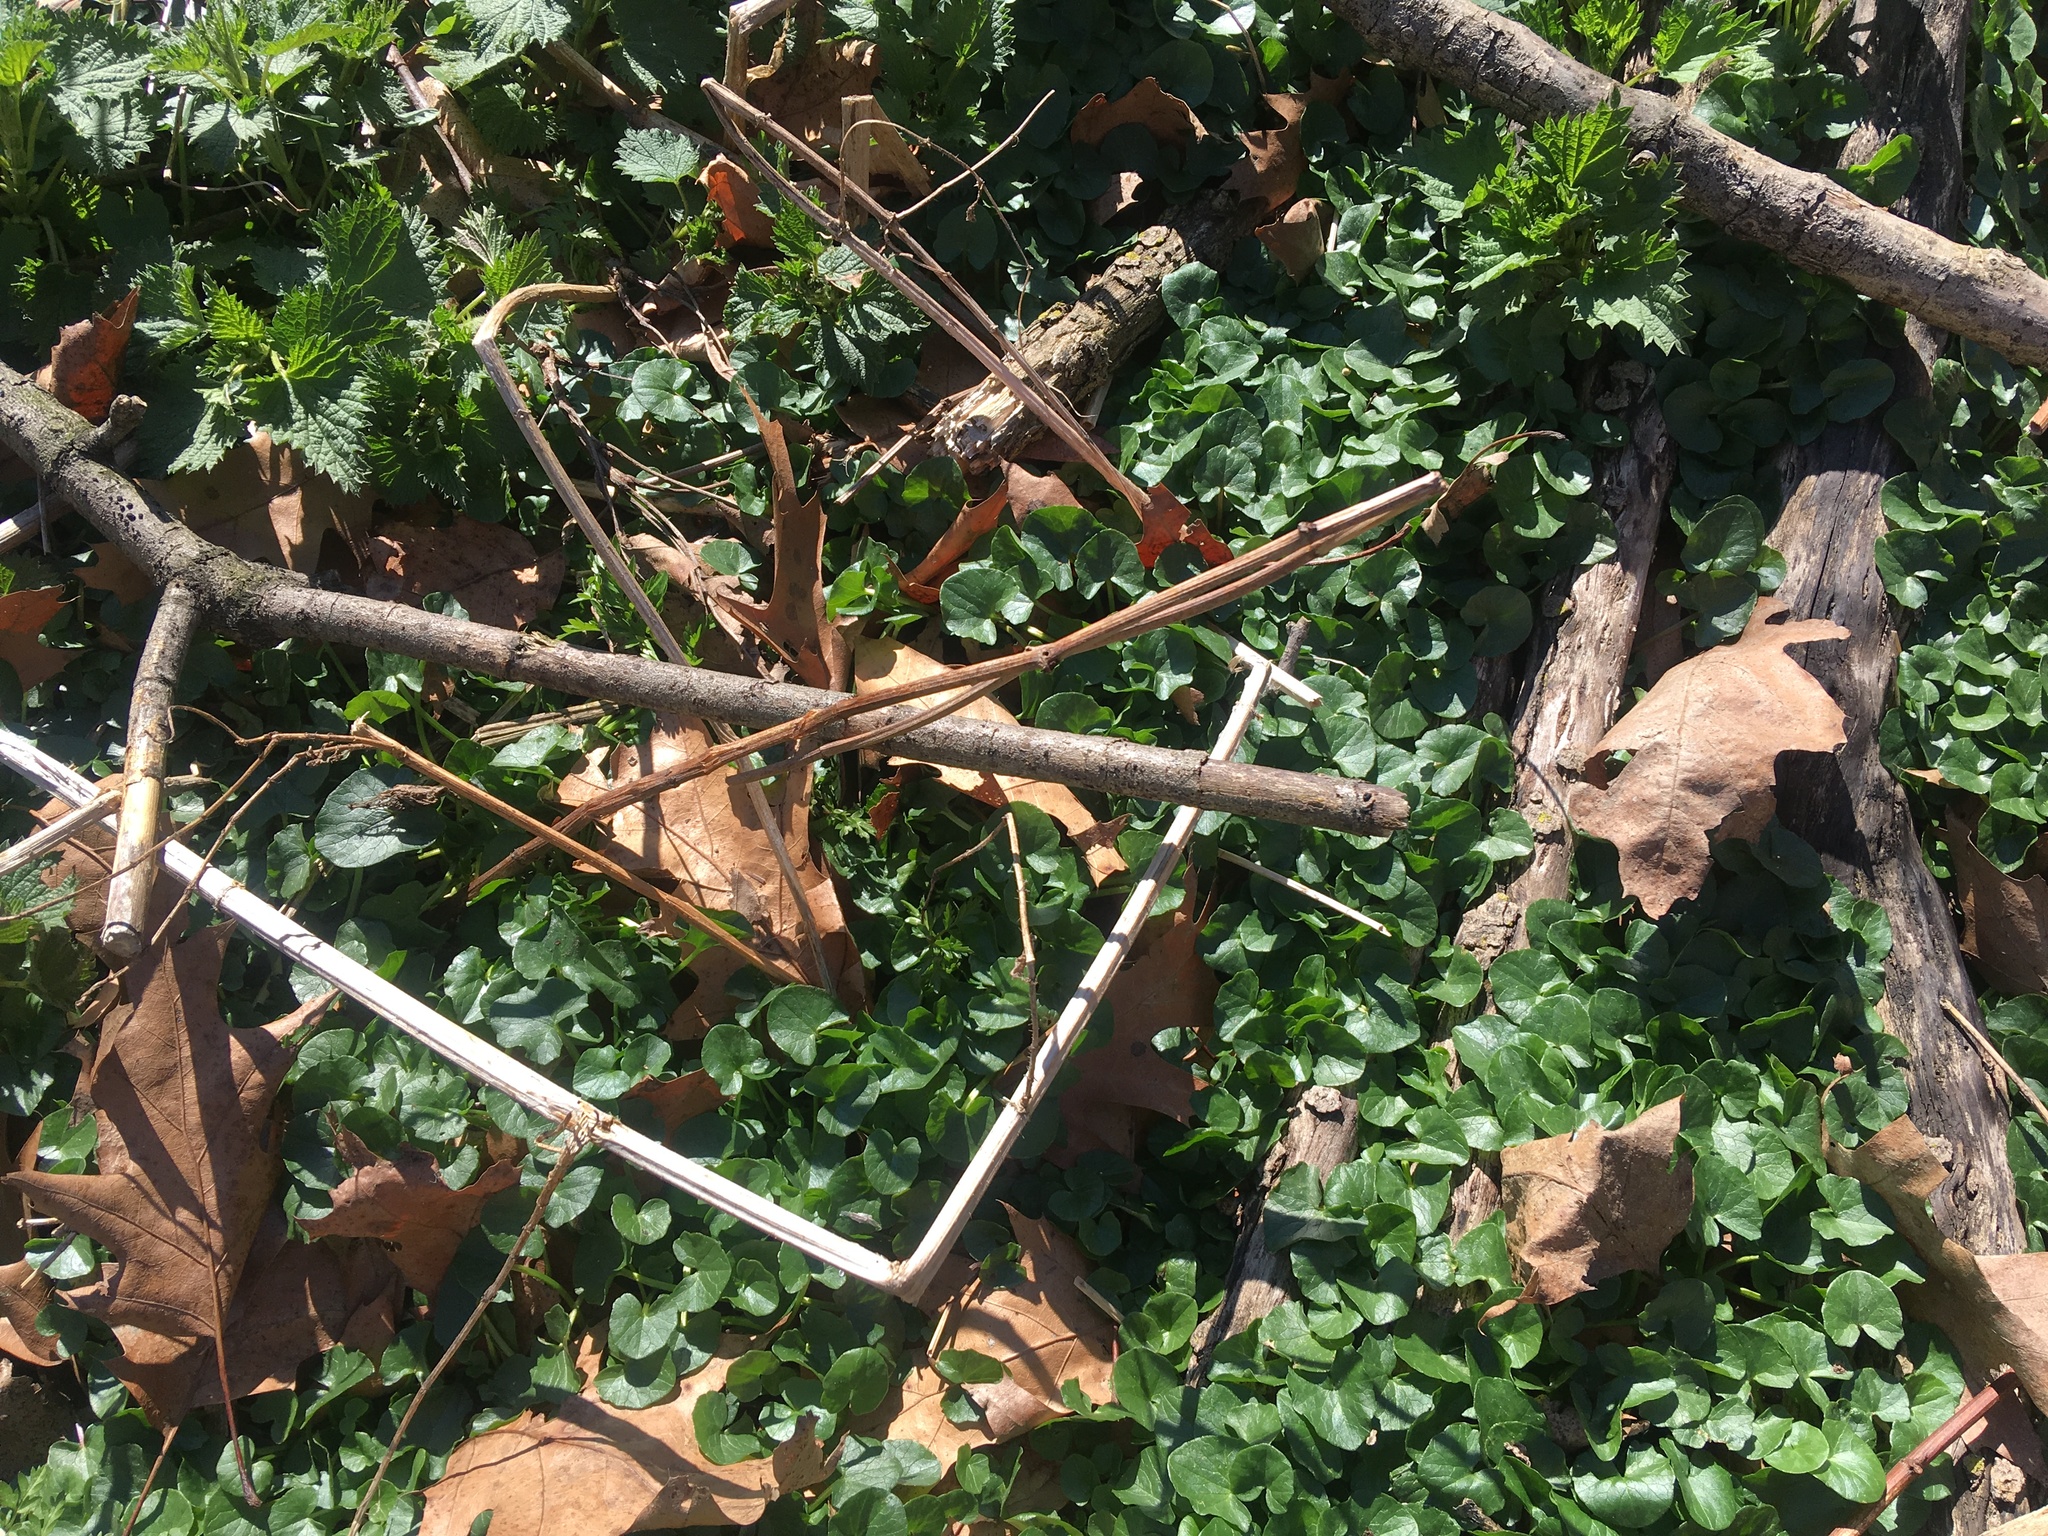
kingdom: Plantae
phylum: Tracheophyta
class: Magnoliopsida
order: Ranunculales
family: Ranunculaceae
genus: Ficaria
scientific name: Ficaria verna
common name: Lesser celandine
